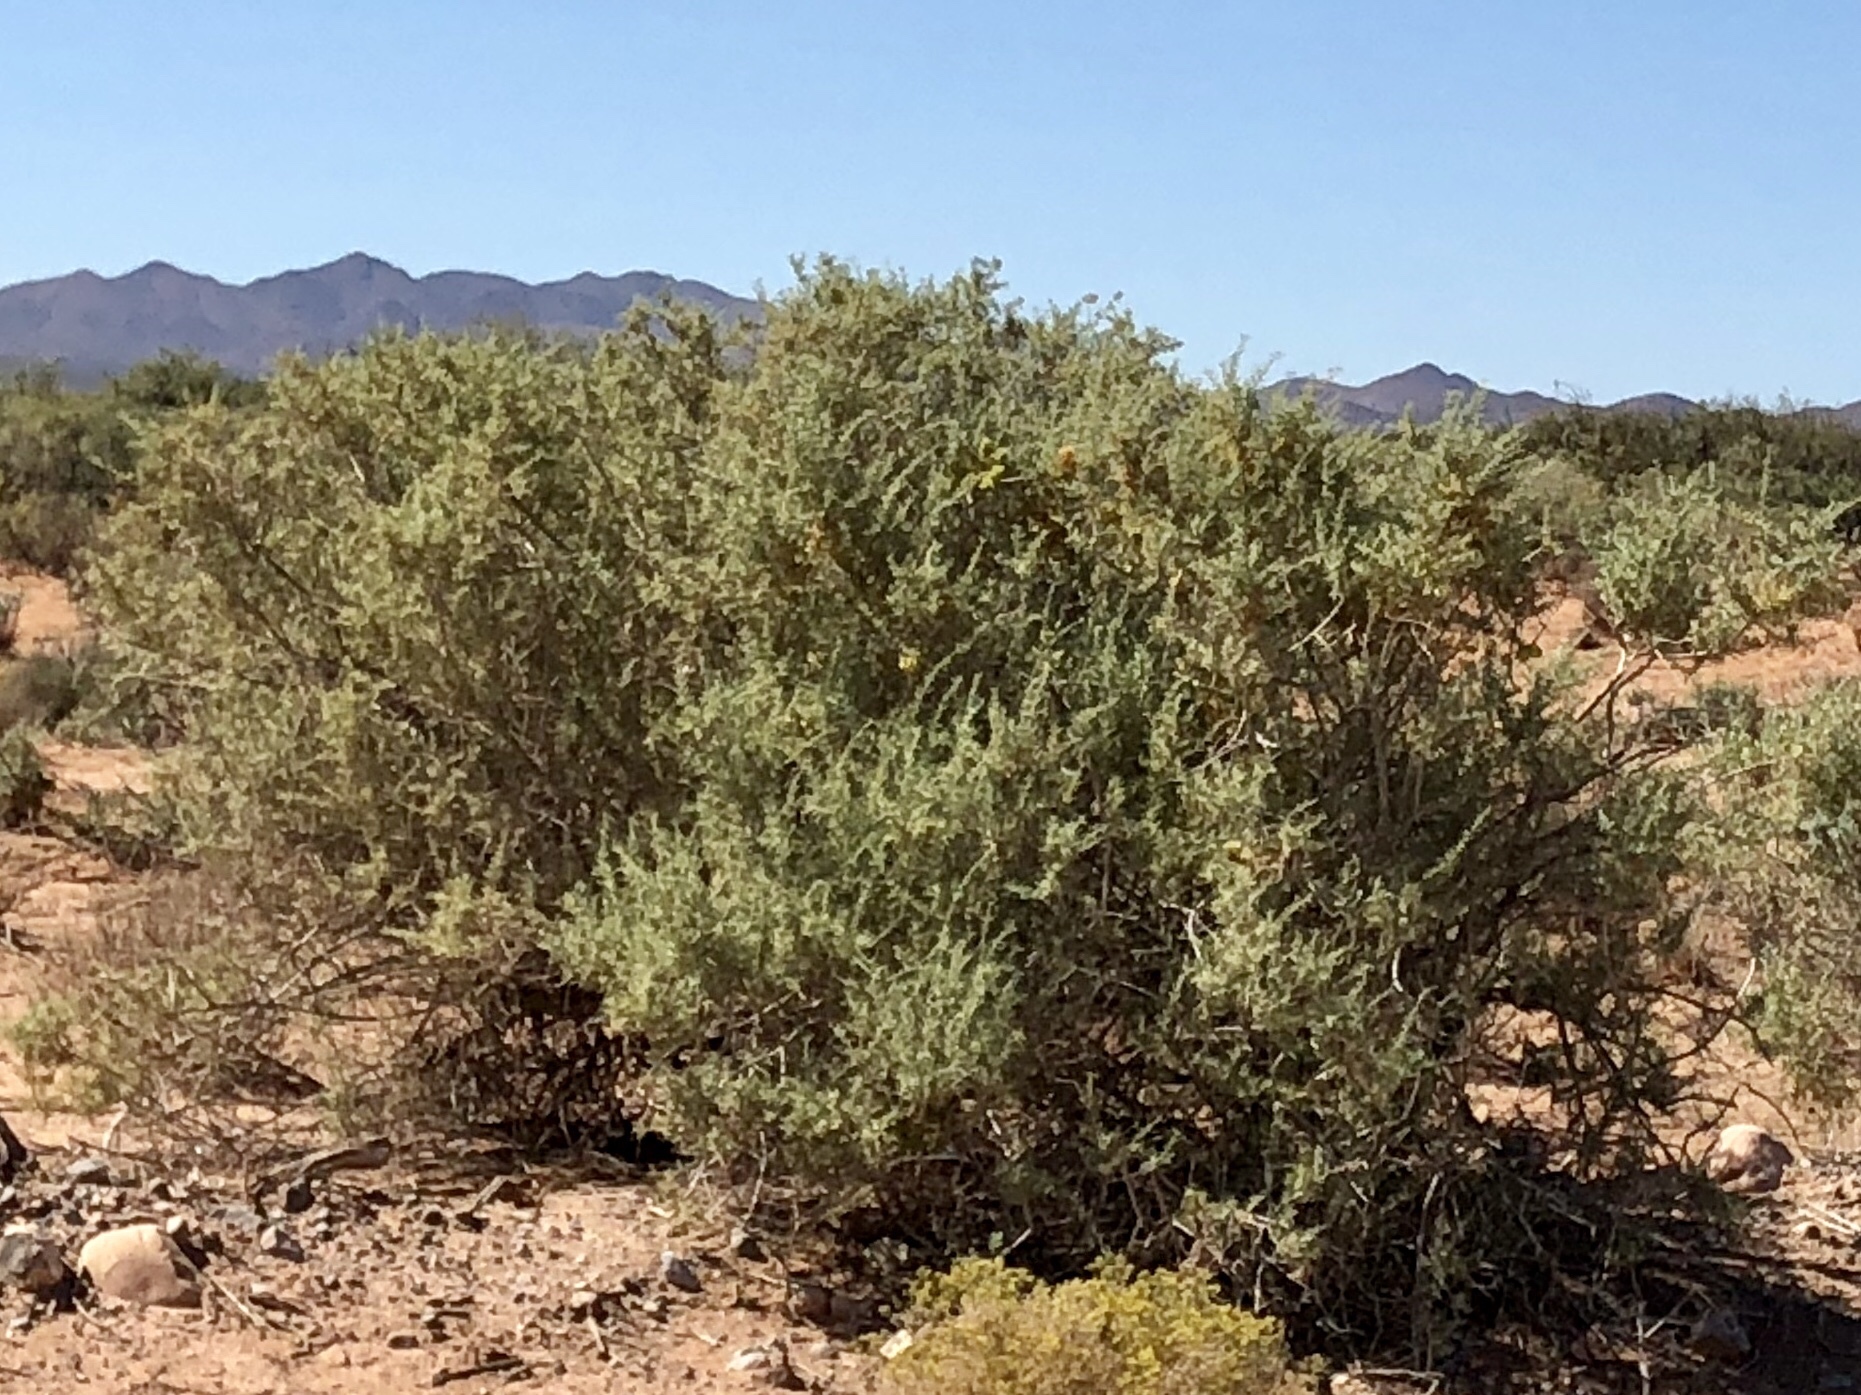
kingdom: Plantae
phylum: Tracheophyta
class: Magnoliopsida
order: Caryophyllales
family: Amaranthaceae
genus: Atriplex
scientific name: Atriplex canescens
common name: Four-wing saltbush
